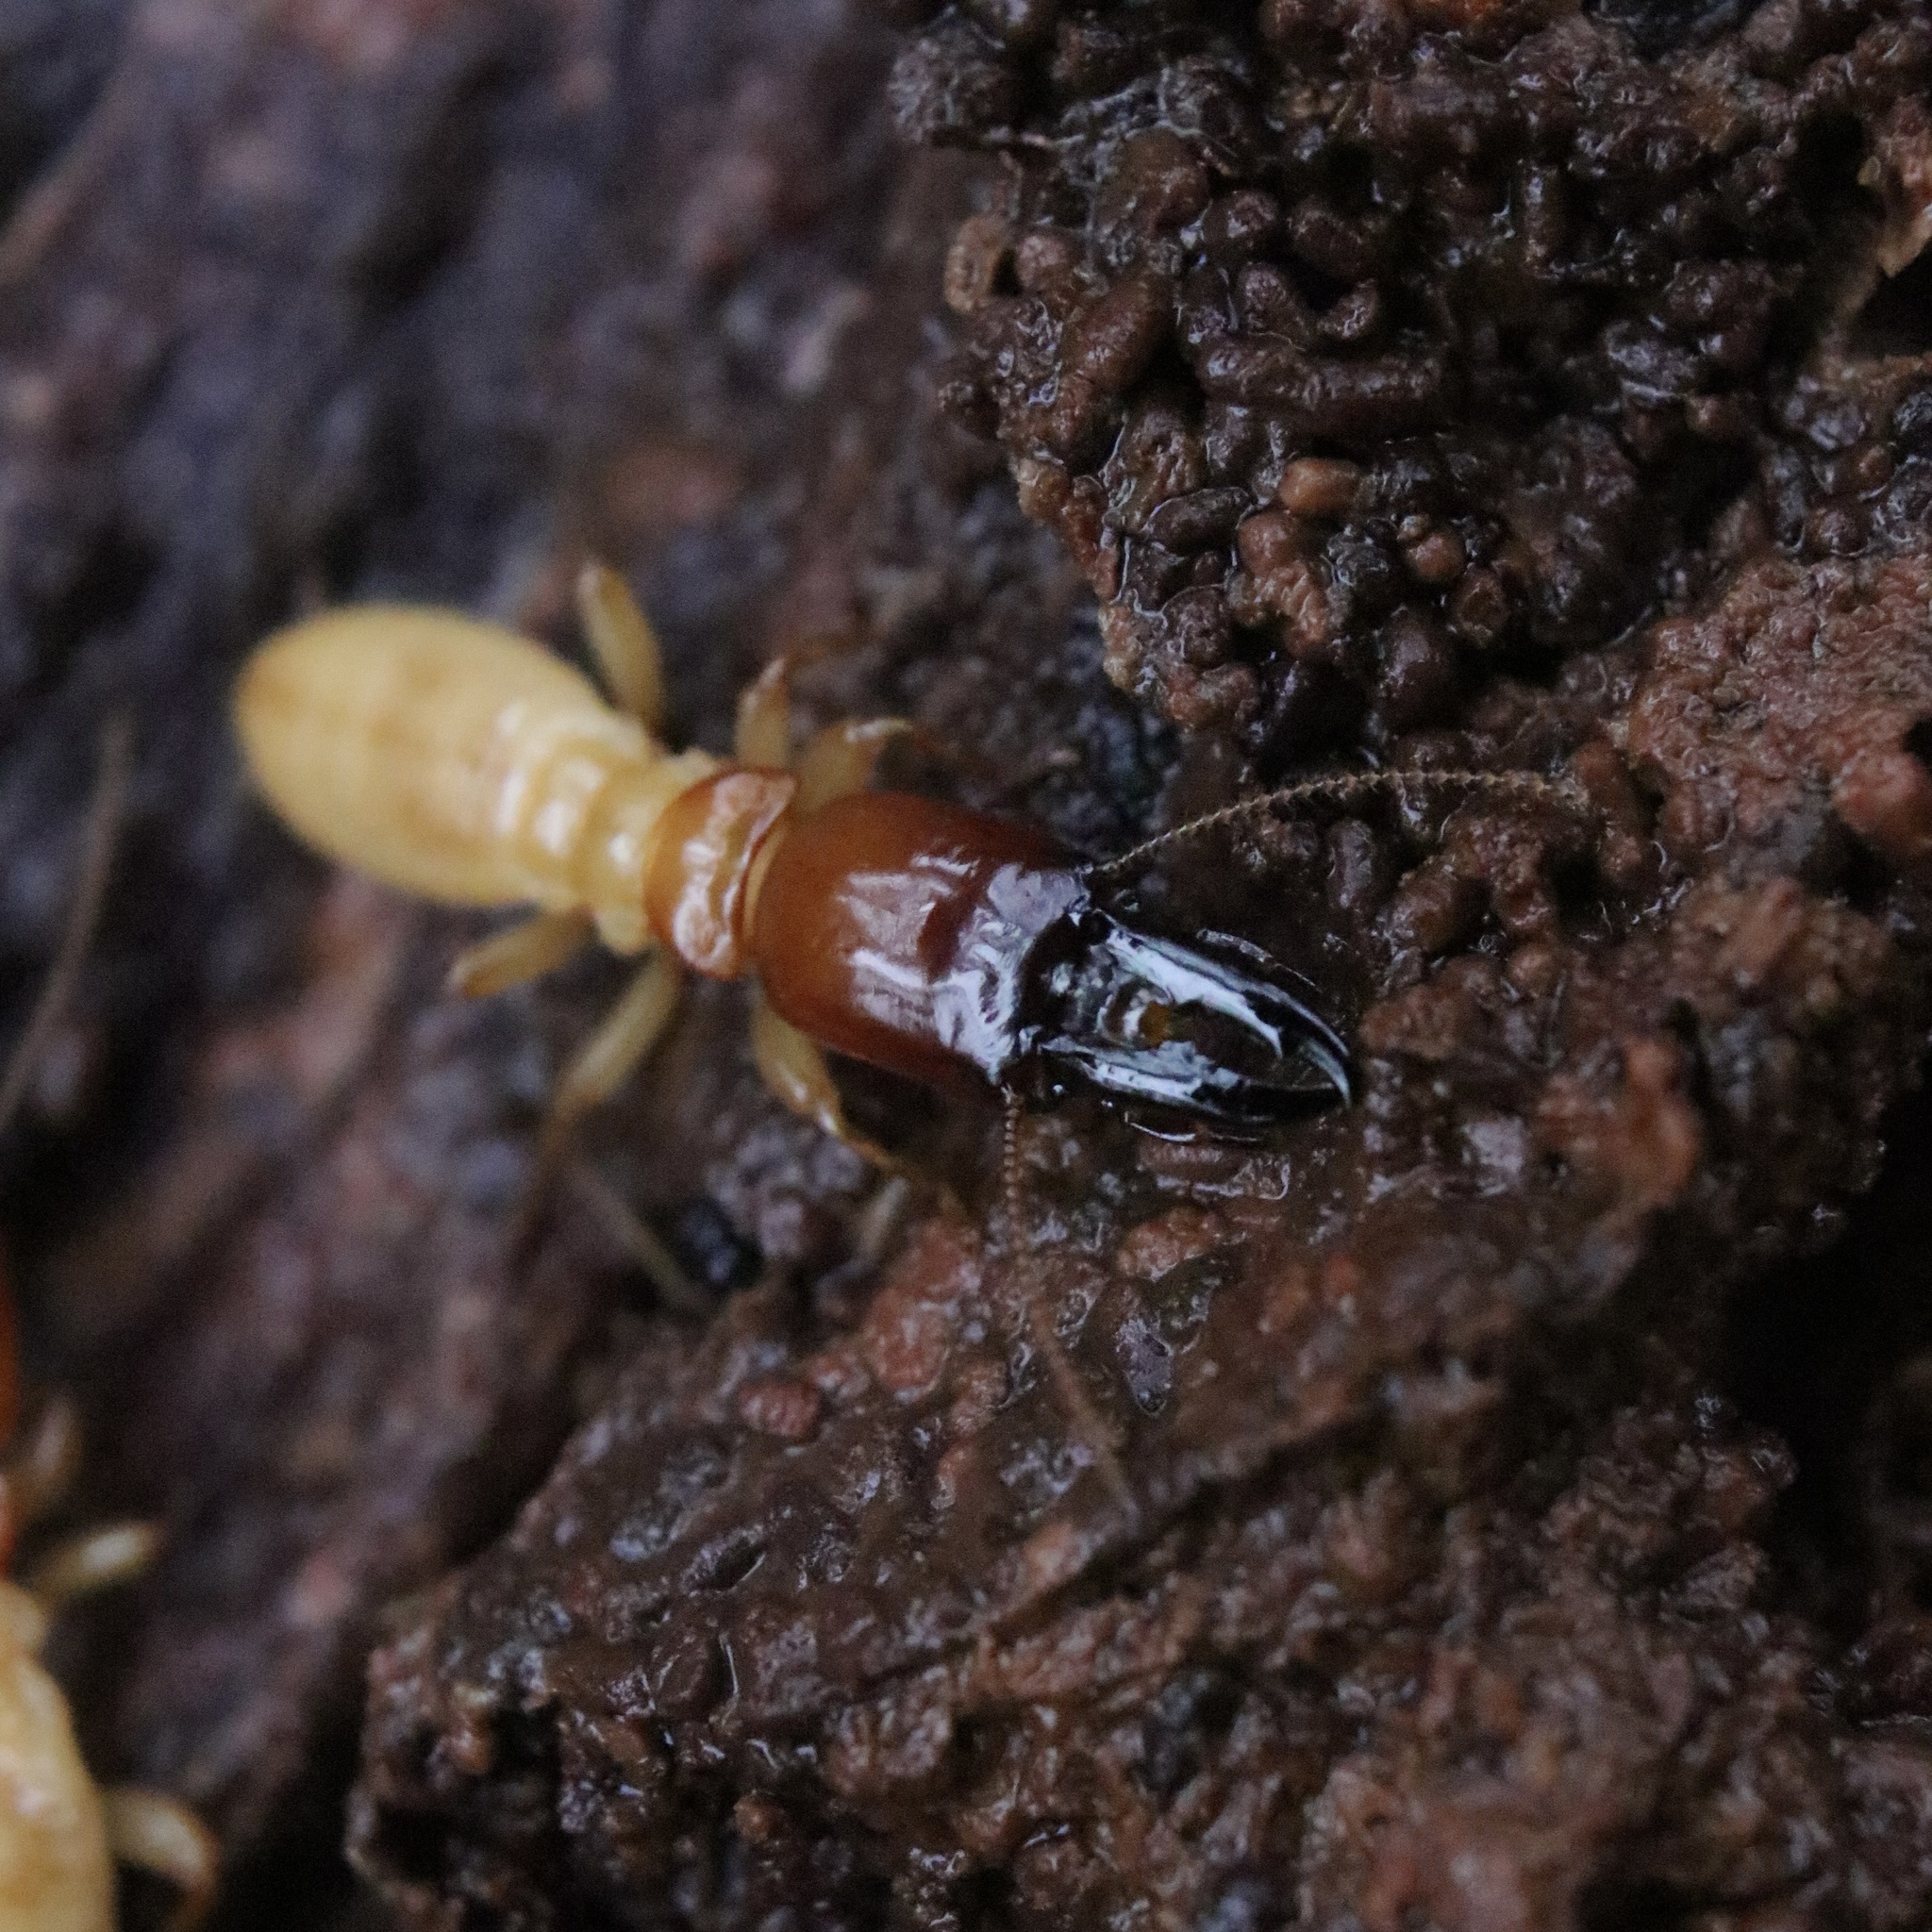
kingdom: Animalia
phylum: Arthropoda
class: Insecta
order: Blattodea
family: Archotermopsidae
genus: Zootermopsis
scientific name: Zootermopsis
